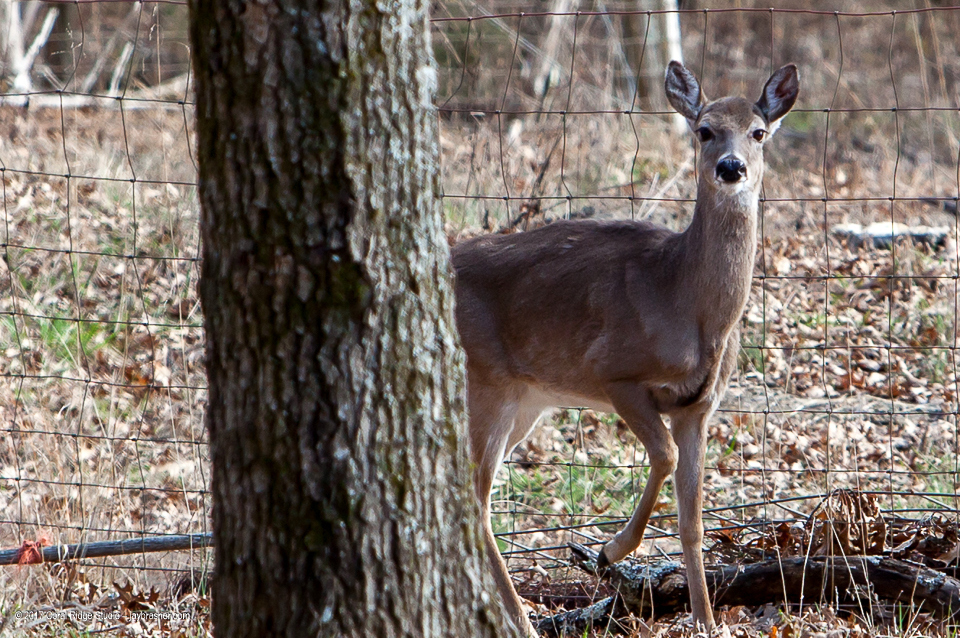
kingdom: Animalia
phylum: Chordata
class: Mammalia
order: Artiodactyla
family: Cervidae
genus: Odocoileus
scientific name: Odocoileus virginianus
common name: White-tailed deer
